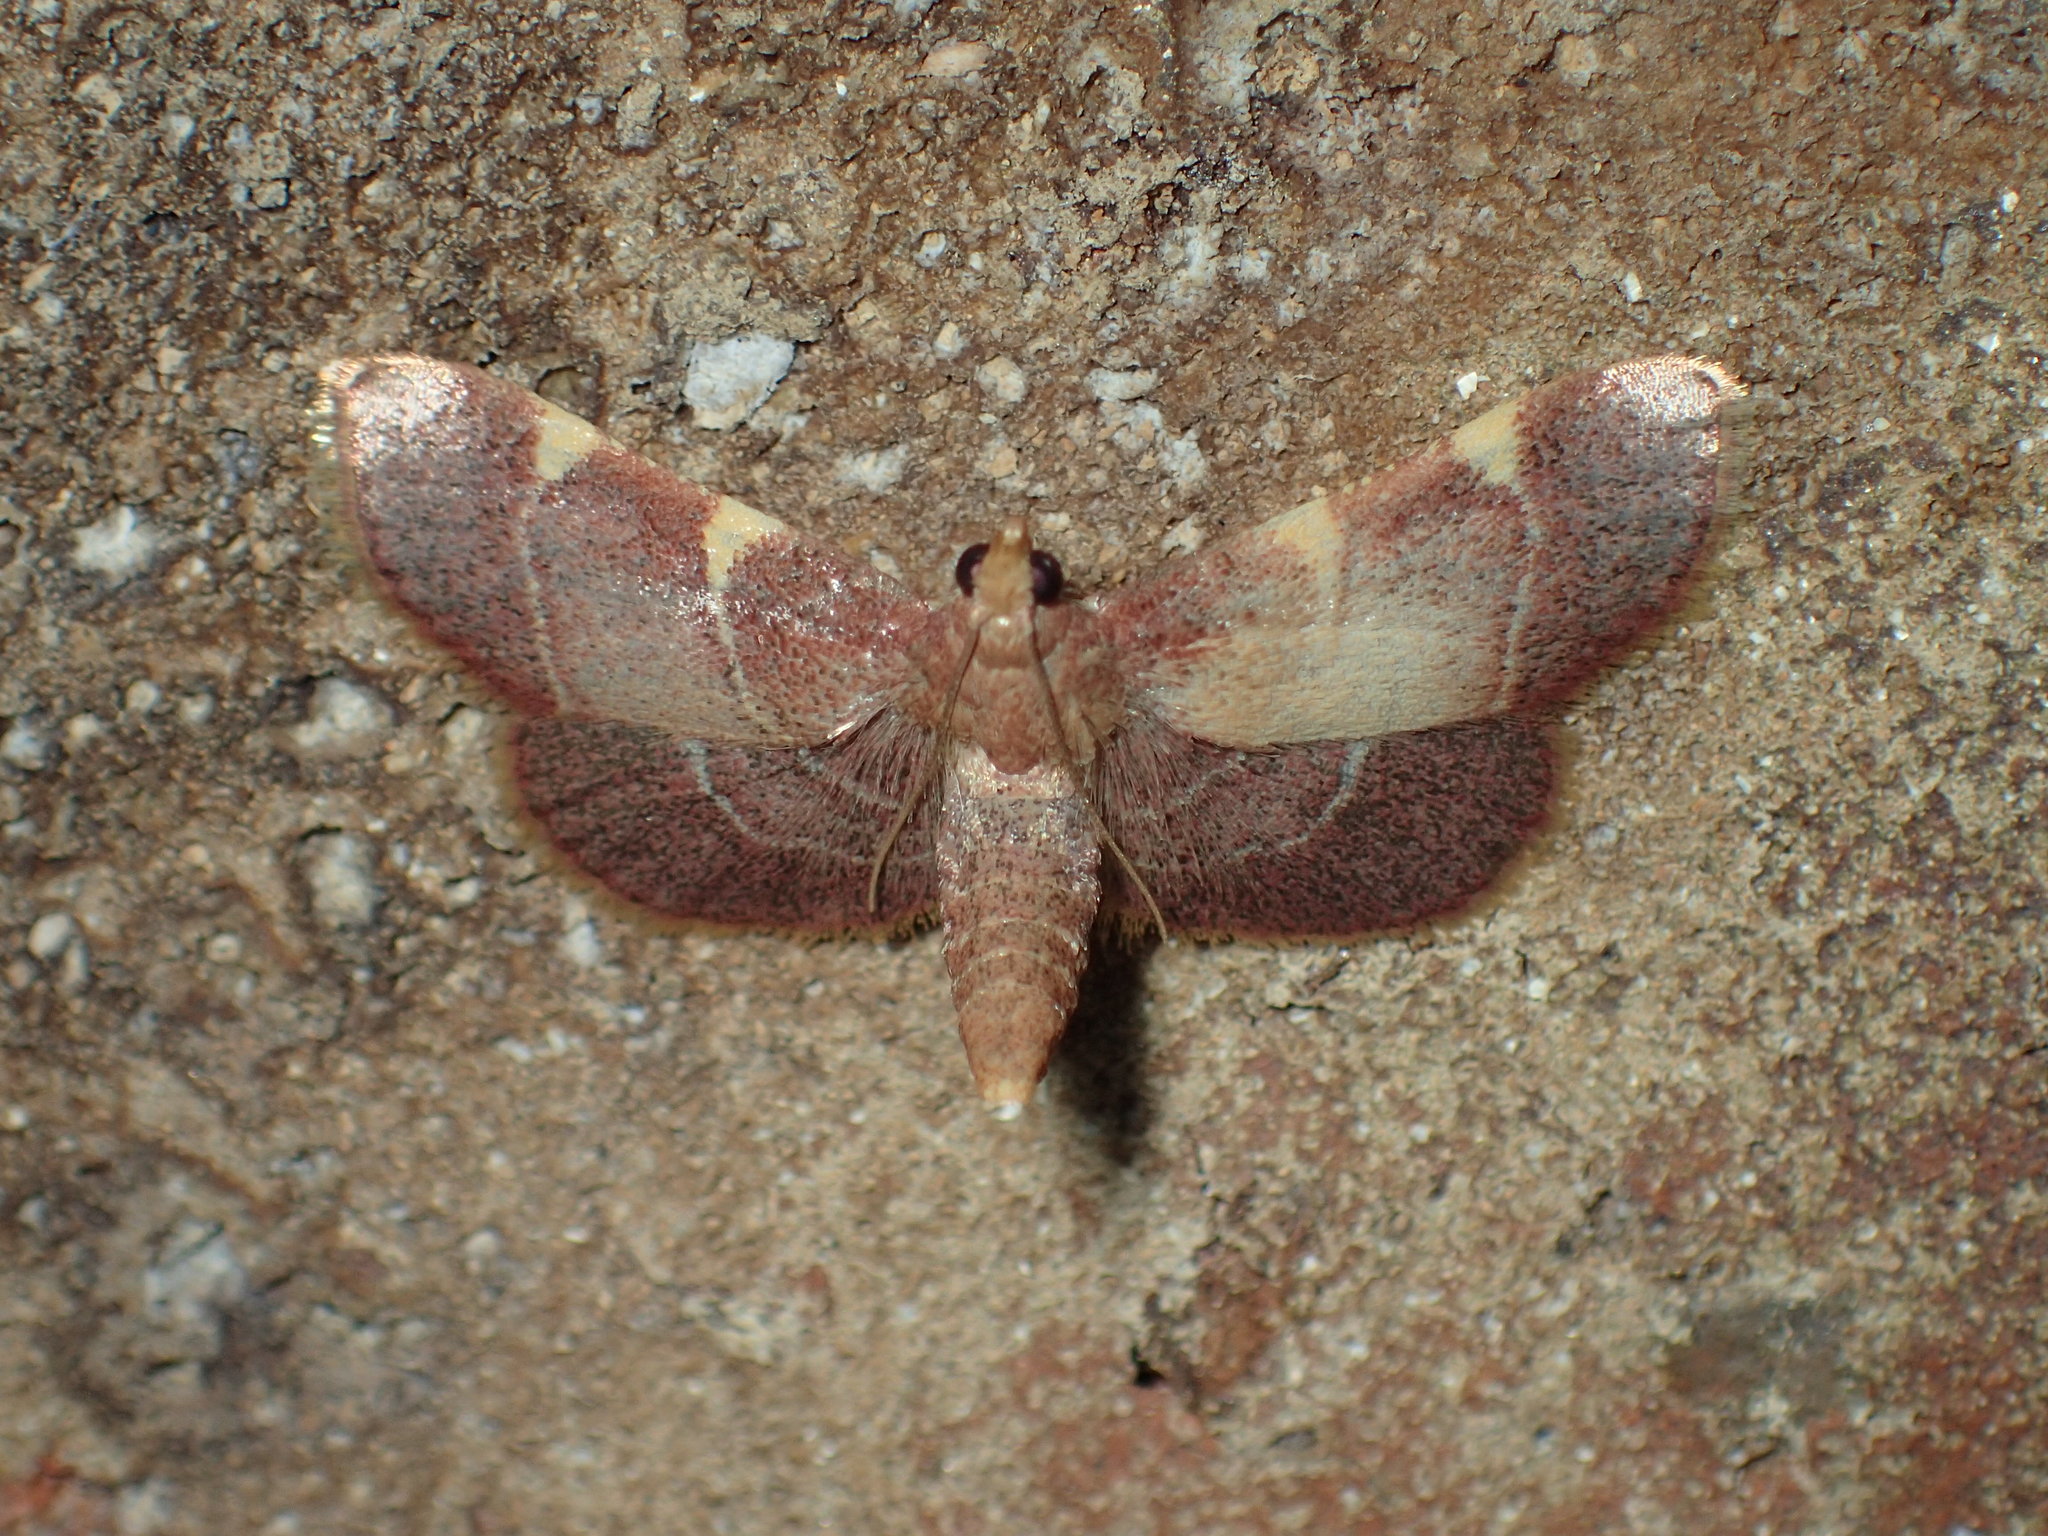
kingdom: Animalia
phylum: Arthropoda
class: Insecta
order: Lepidoptera
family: Pyralidae
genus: Hypsopygia
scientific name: Hypsopygia olinalis
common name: Yellow-fringed dolichomia moth
